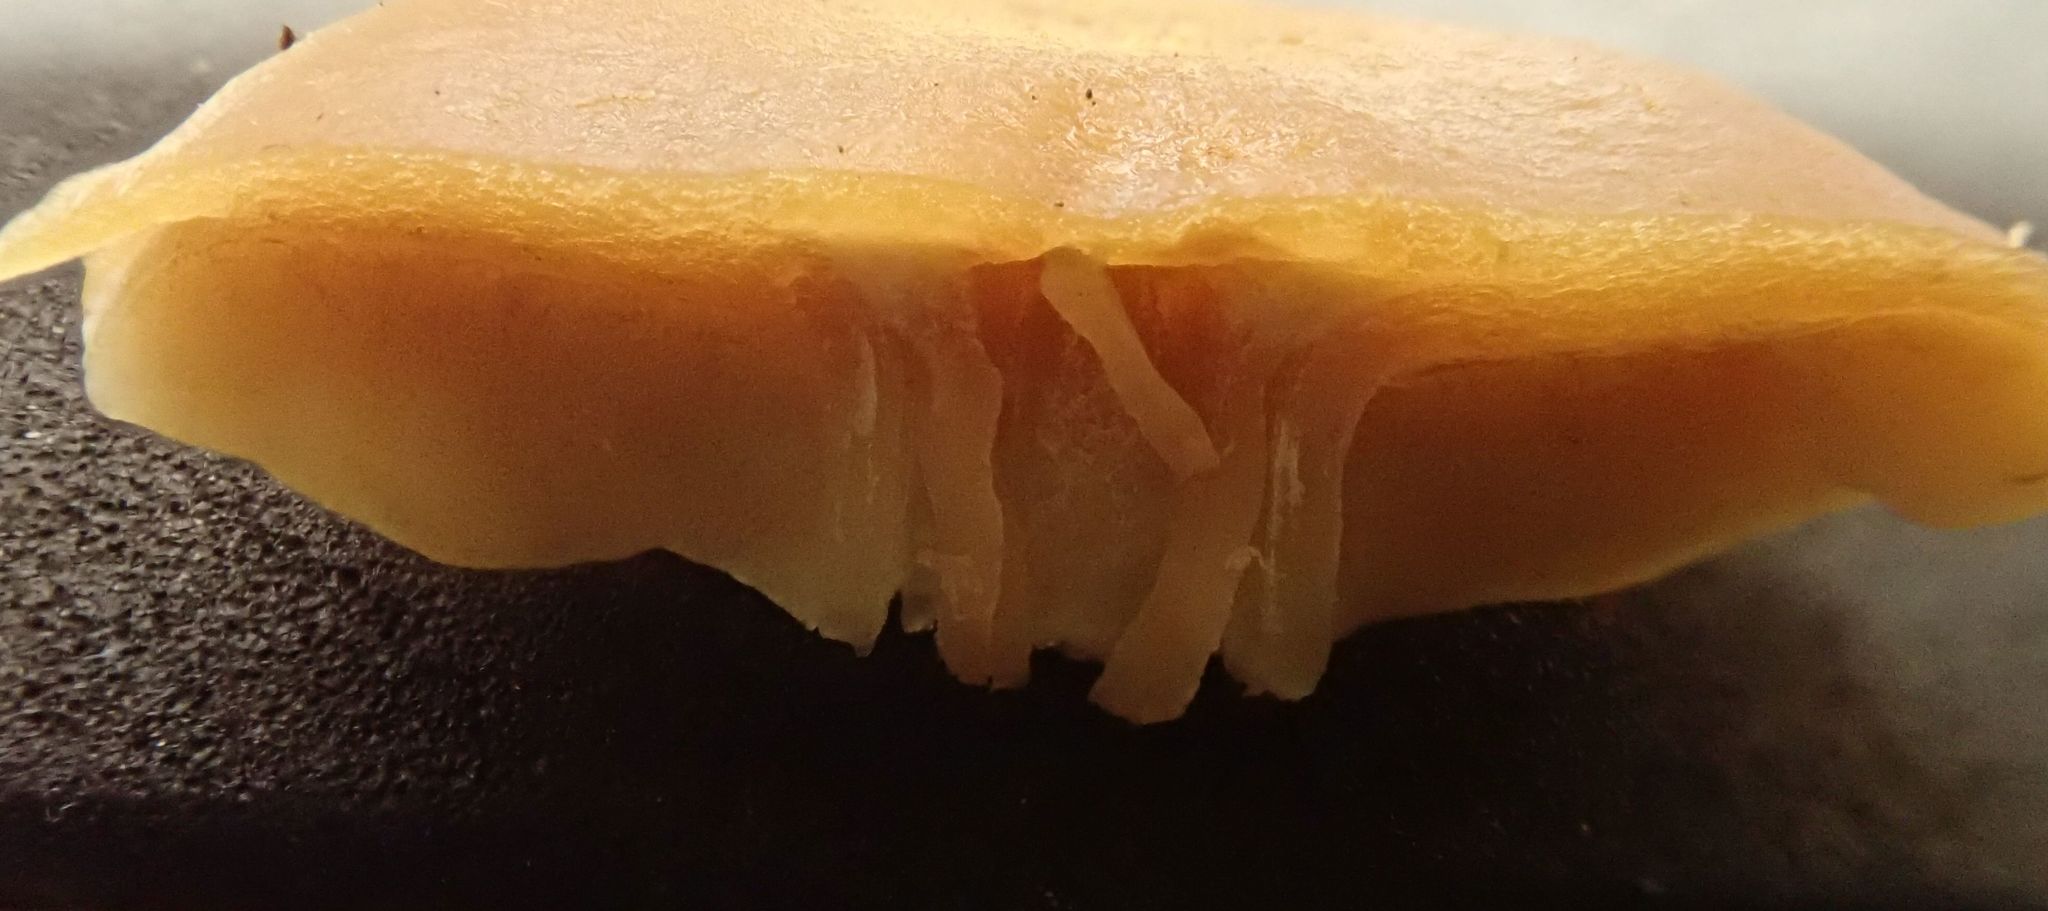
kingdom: Fungi
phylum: Basidiomycota
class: Agaricomycetes
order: Agaricales
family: Strophariaceae
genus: Agrocybe
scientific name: Agrocybe pediades
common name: Common fieldcap
